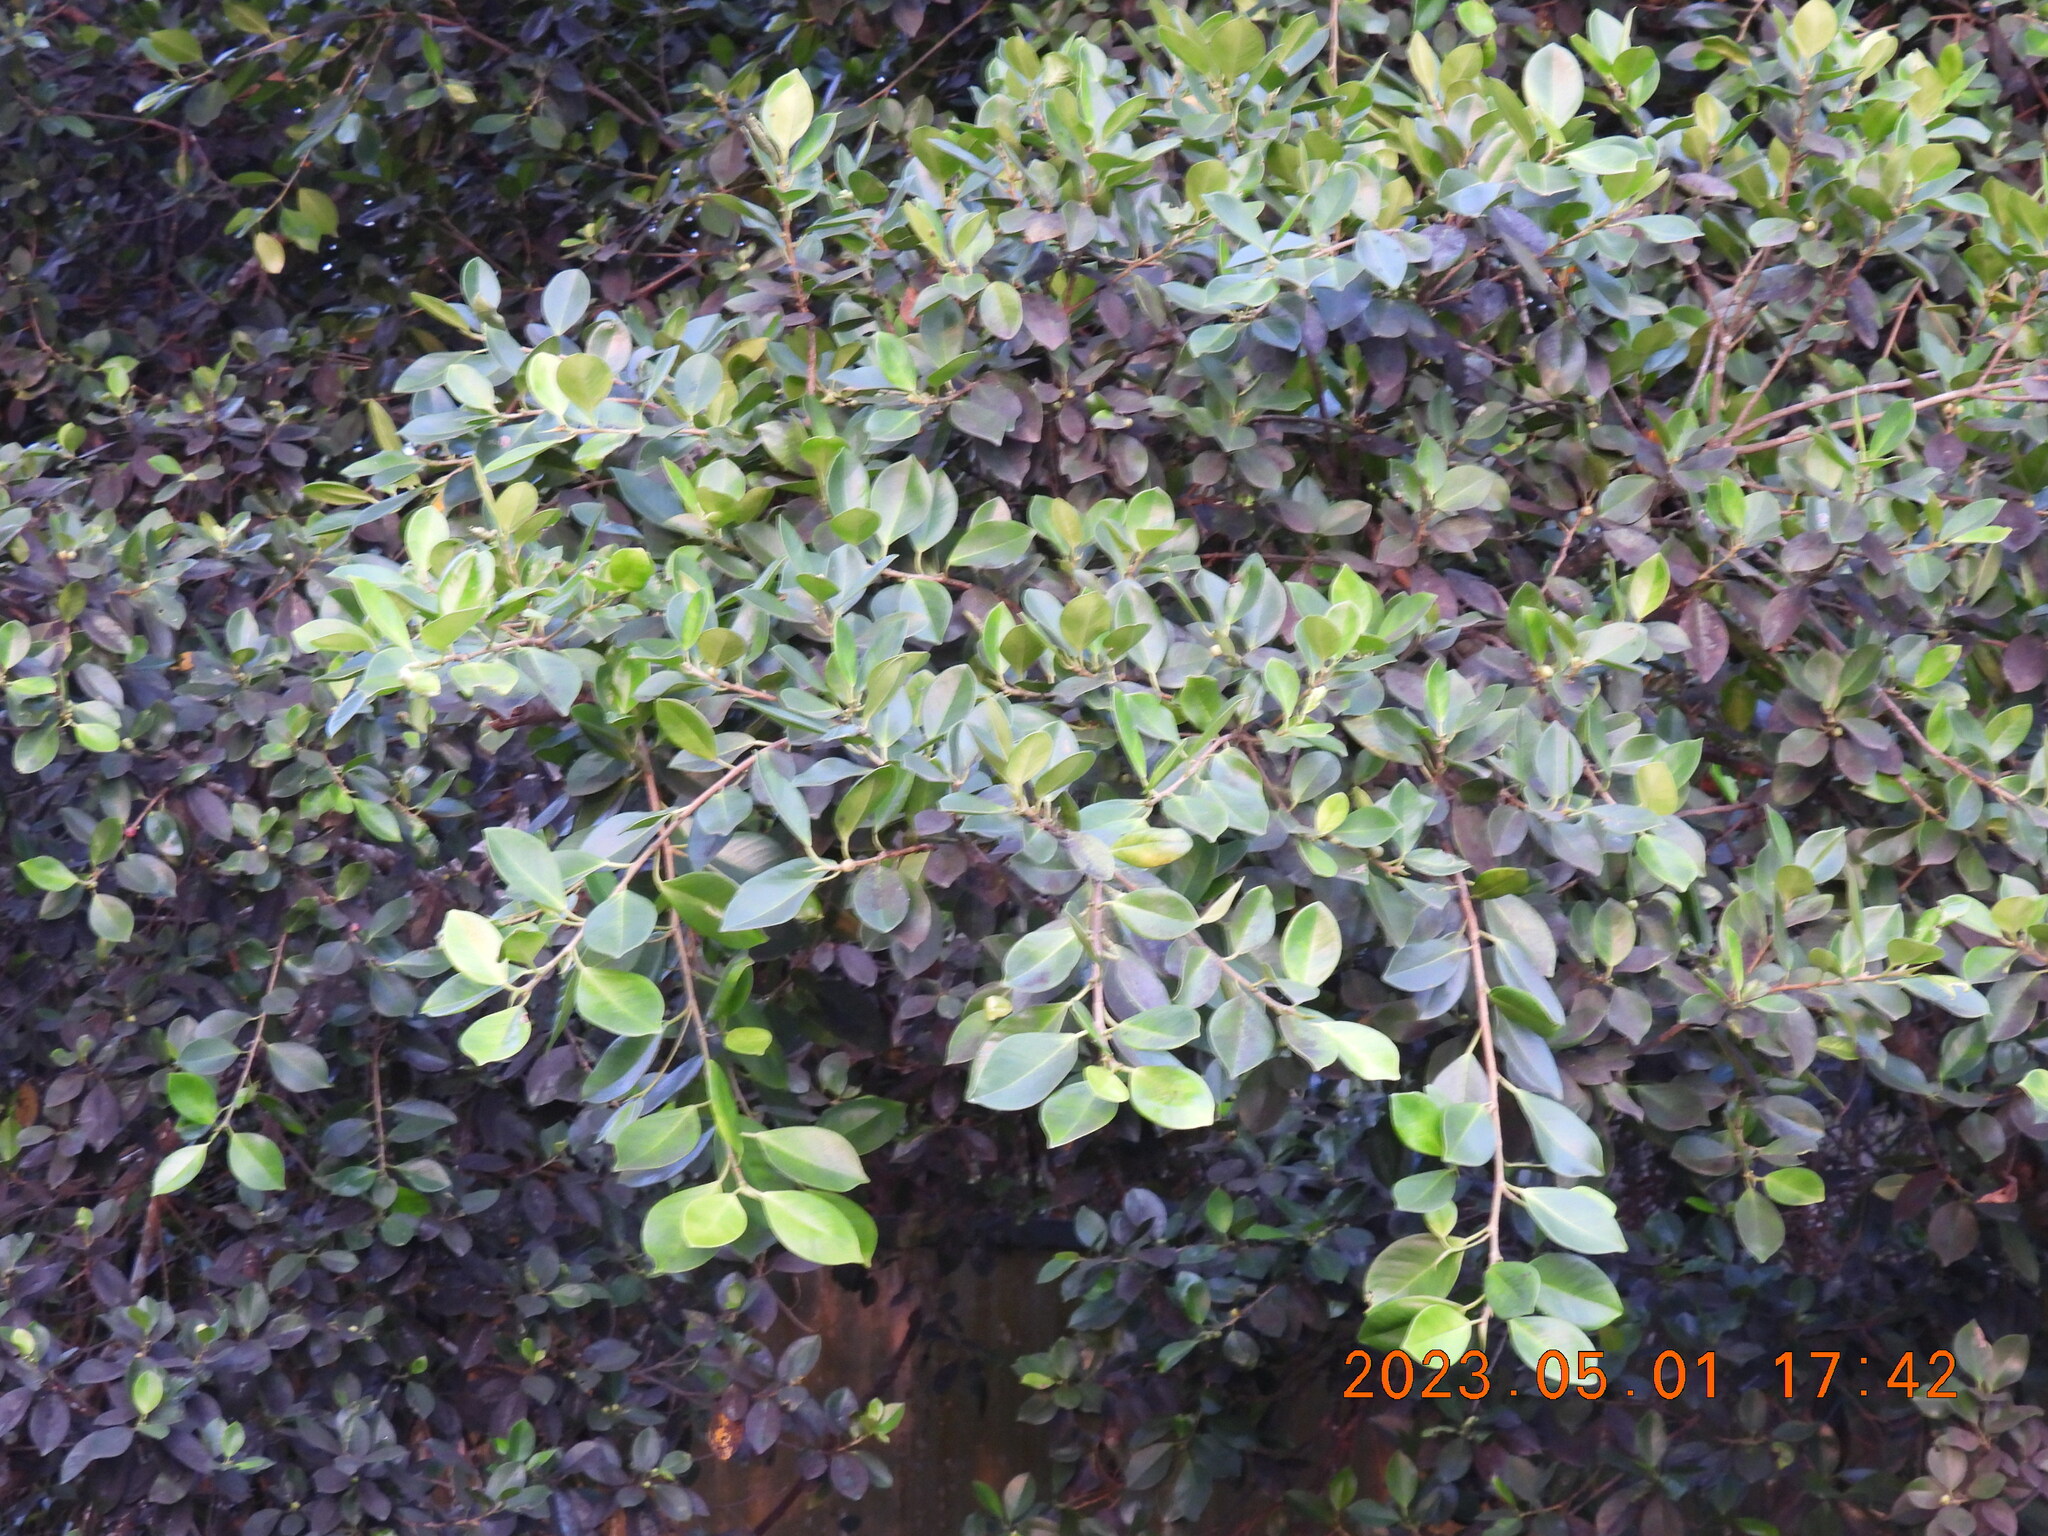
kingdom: Plantae
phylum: Tracheophyta
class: Magnoliopsida
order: Rosales
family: Moraceae
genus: Ficus
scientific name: Ficus microcarpa
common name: Chinese banyan
